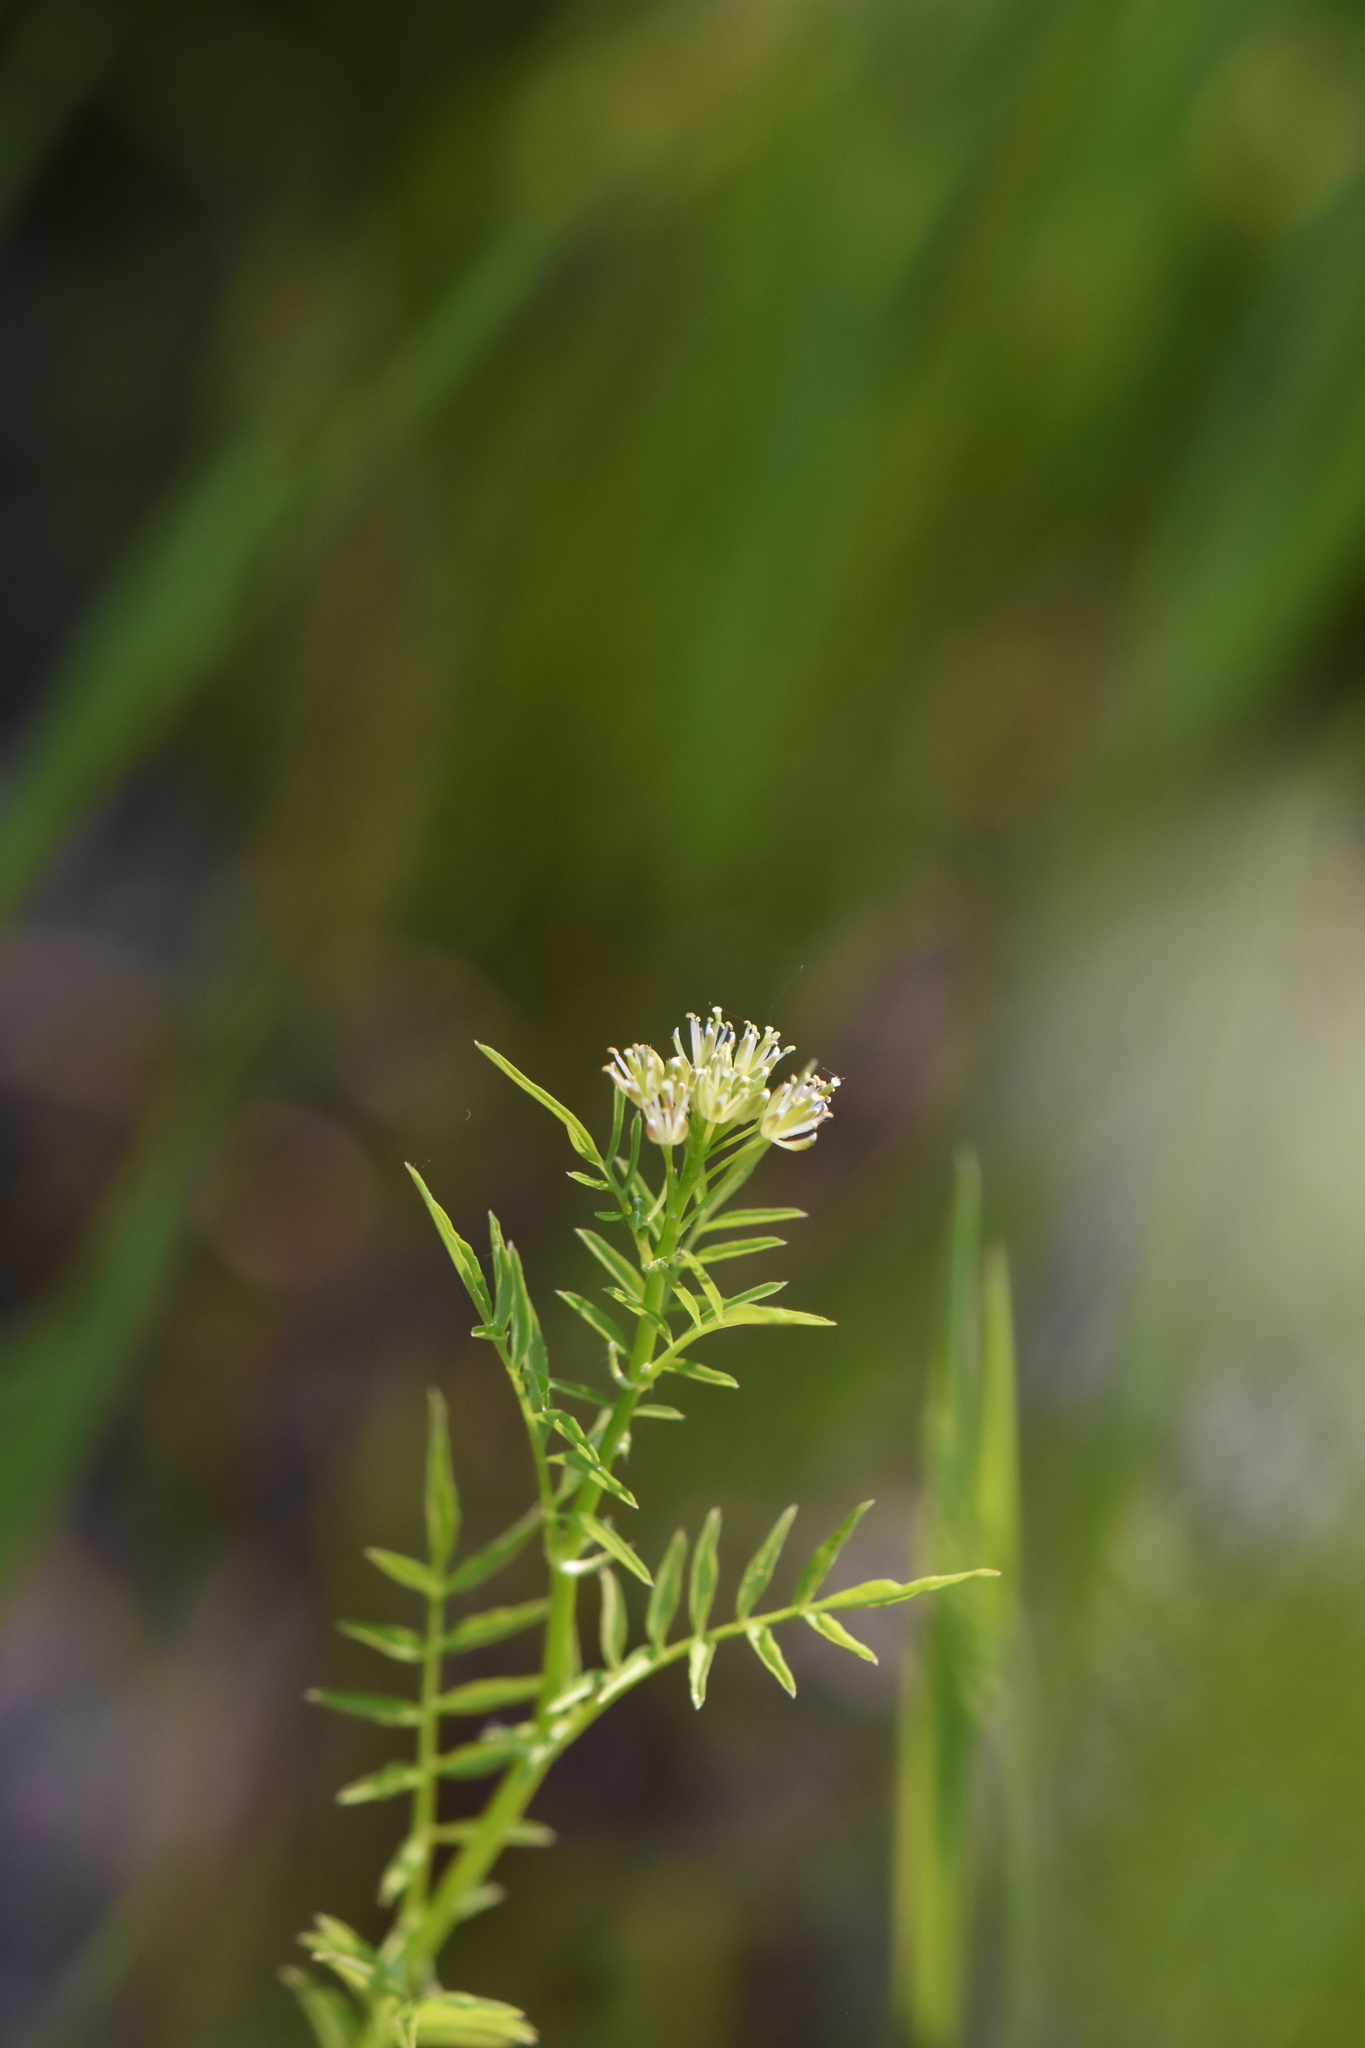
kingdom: Plantae
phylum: Tracheophyta
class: Magnoliopsida
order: Brassicales
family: Brassicaceae
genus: Cardamine
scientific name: Cardamine impatiens
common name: Narrow-leaved bitter-cress
